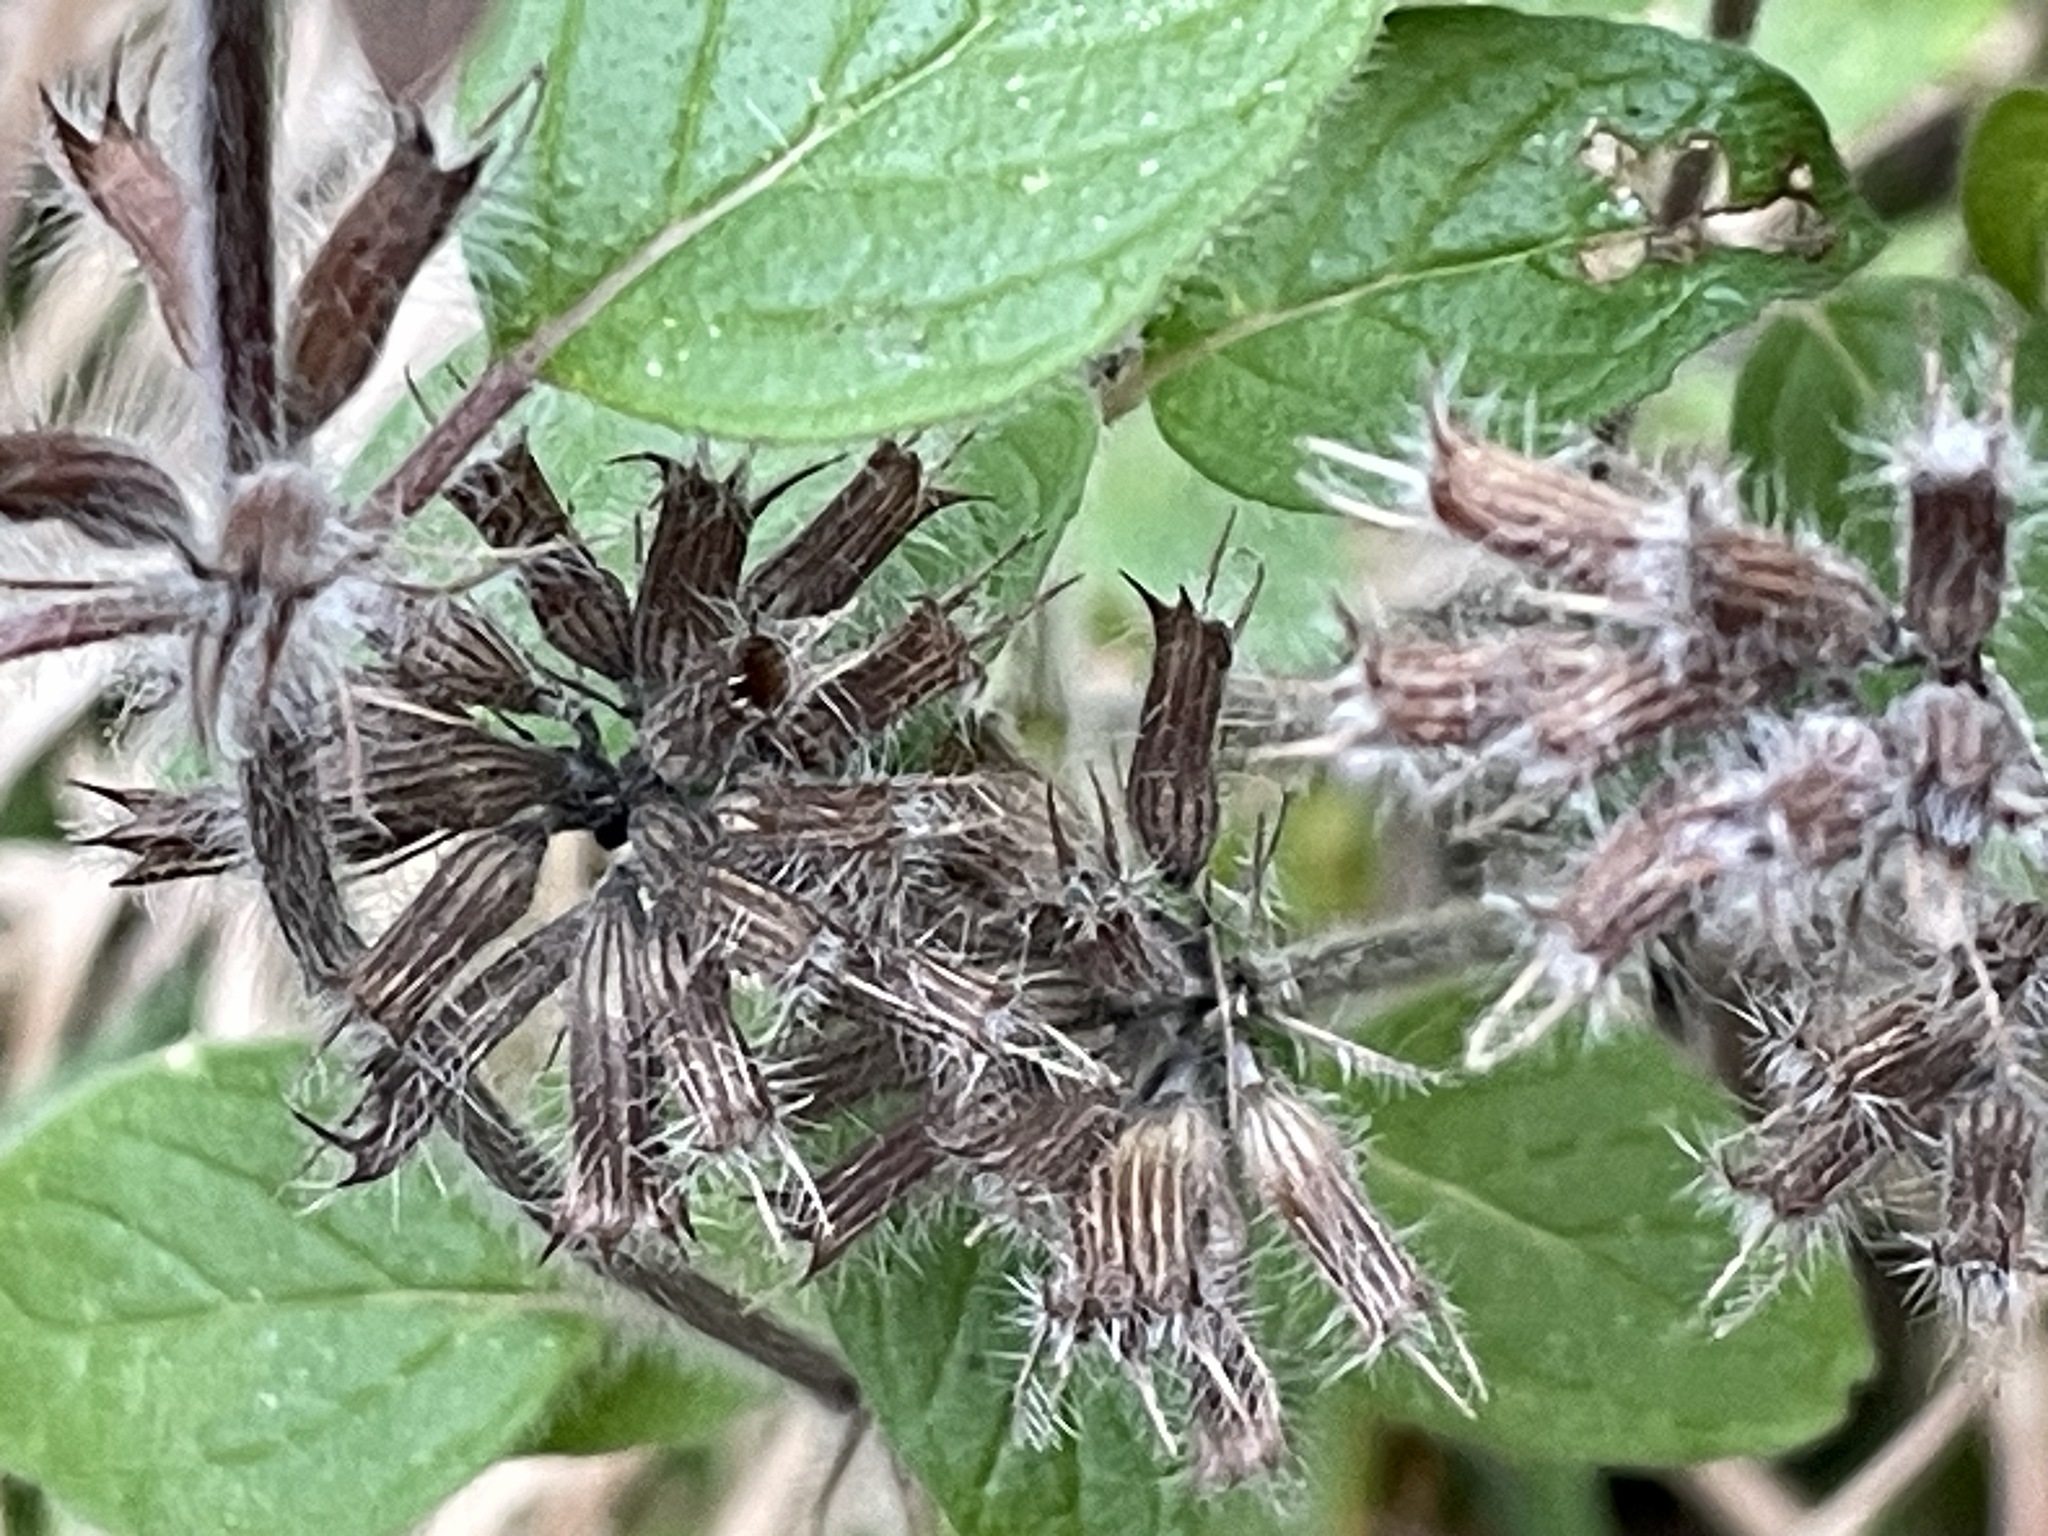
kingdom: Plantae
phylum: Tracheophyta
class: Magnoliopsida
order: Lamiales
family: Lamiaceae
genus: Clinopodium
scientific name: Clinopodium vulgare
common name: Wild basil
